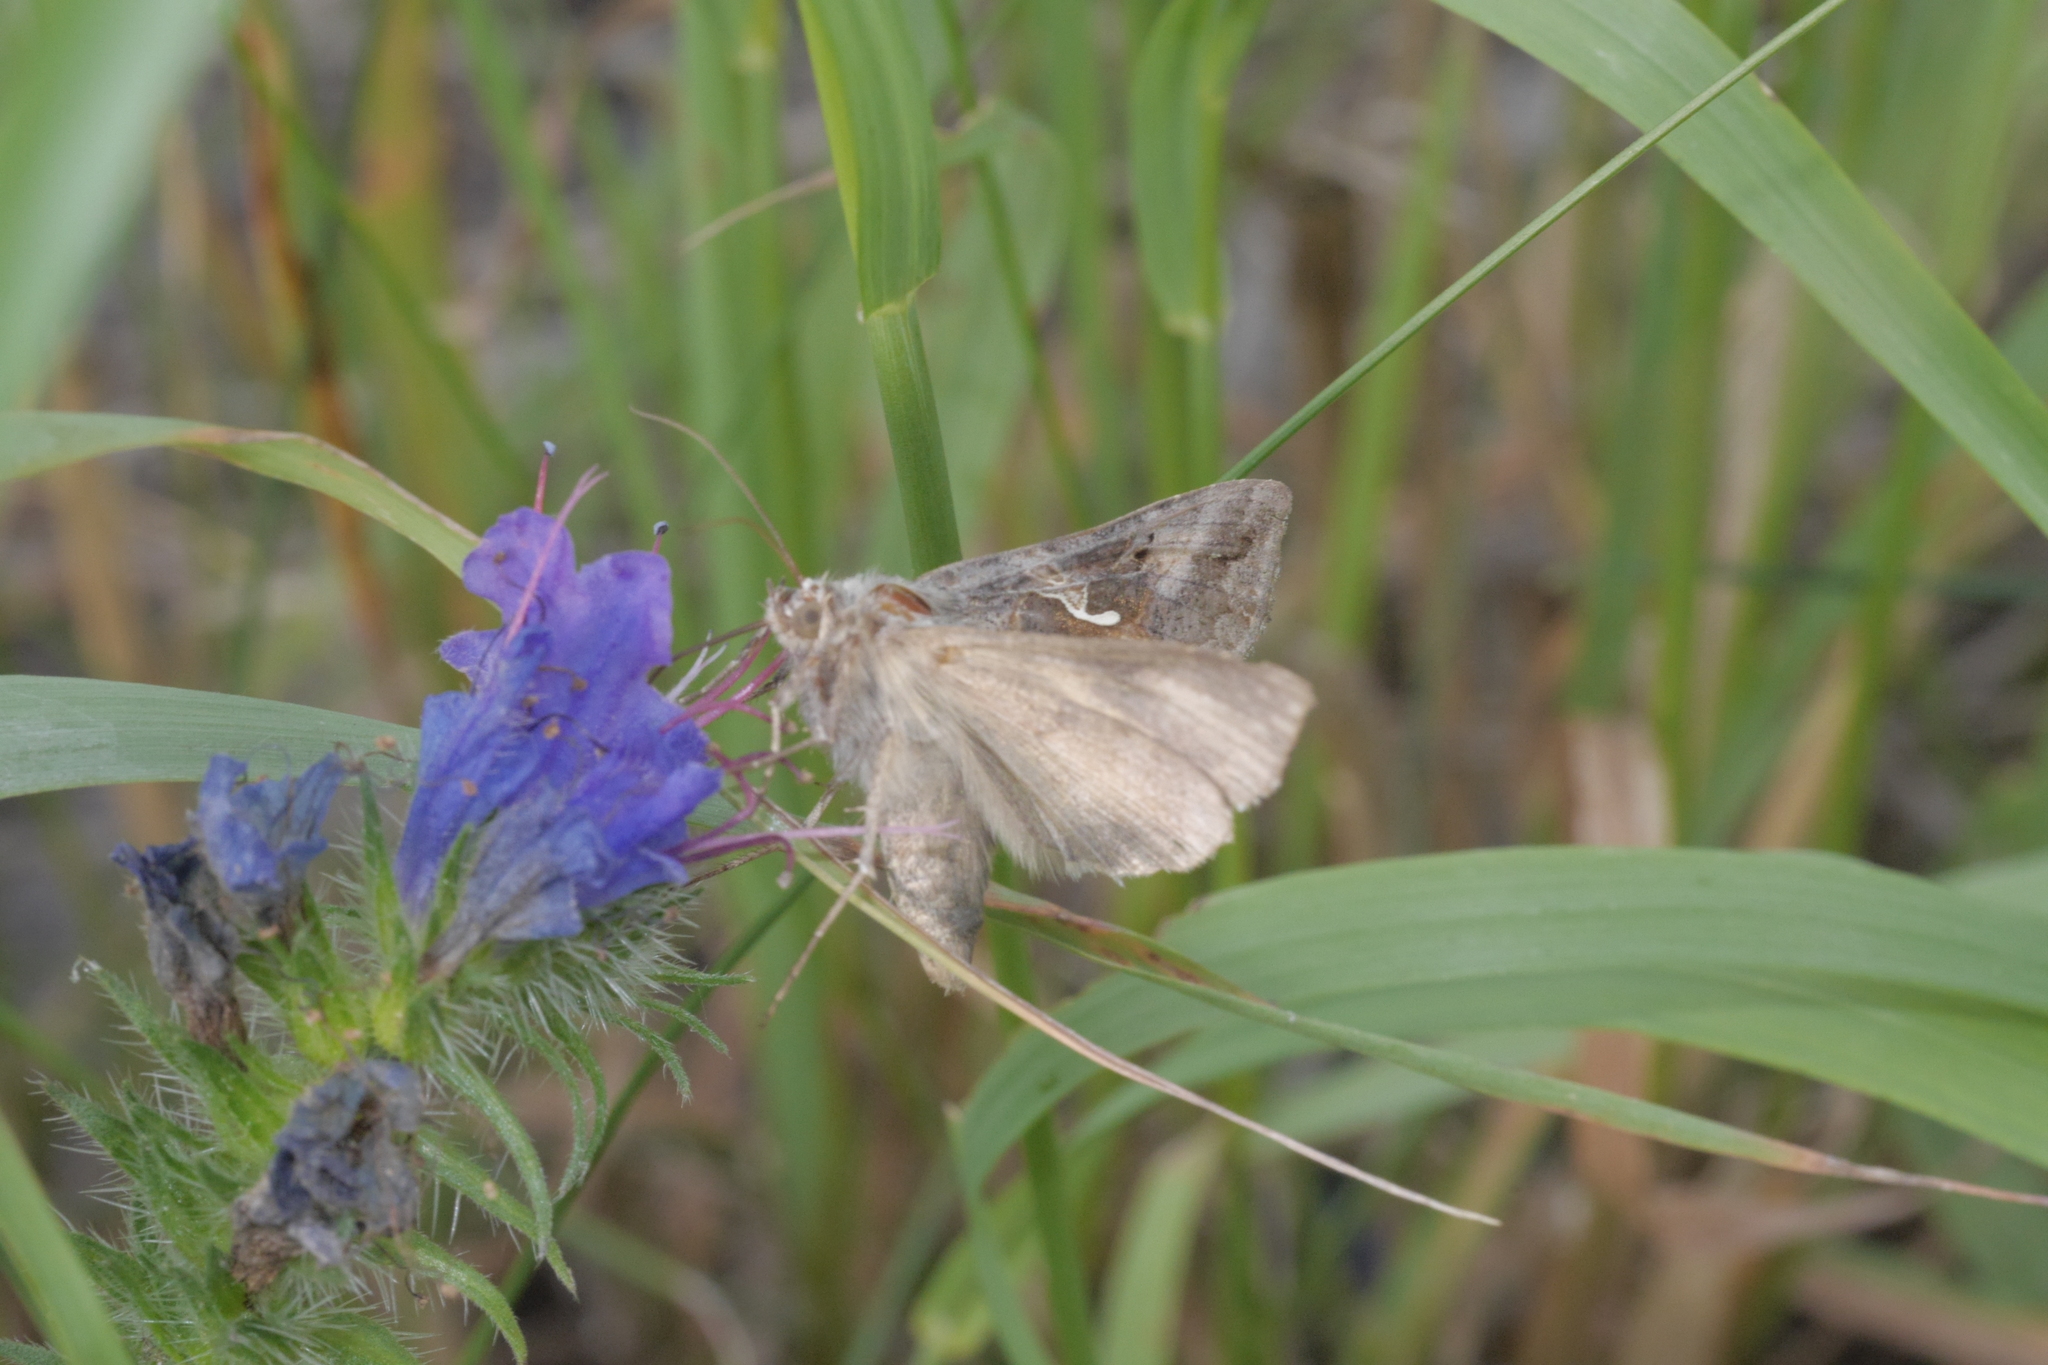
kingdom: Animalia
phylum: Arthropoda
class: Insecta
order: Lepidoptera
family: Noctuidae
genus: Autographa
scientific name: Autographa gamma
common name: Silver y
